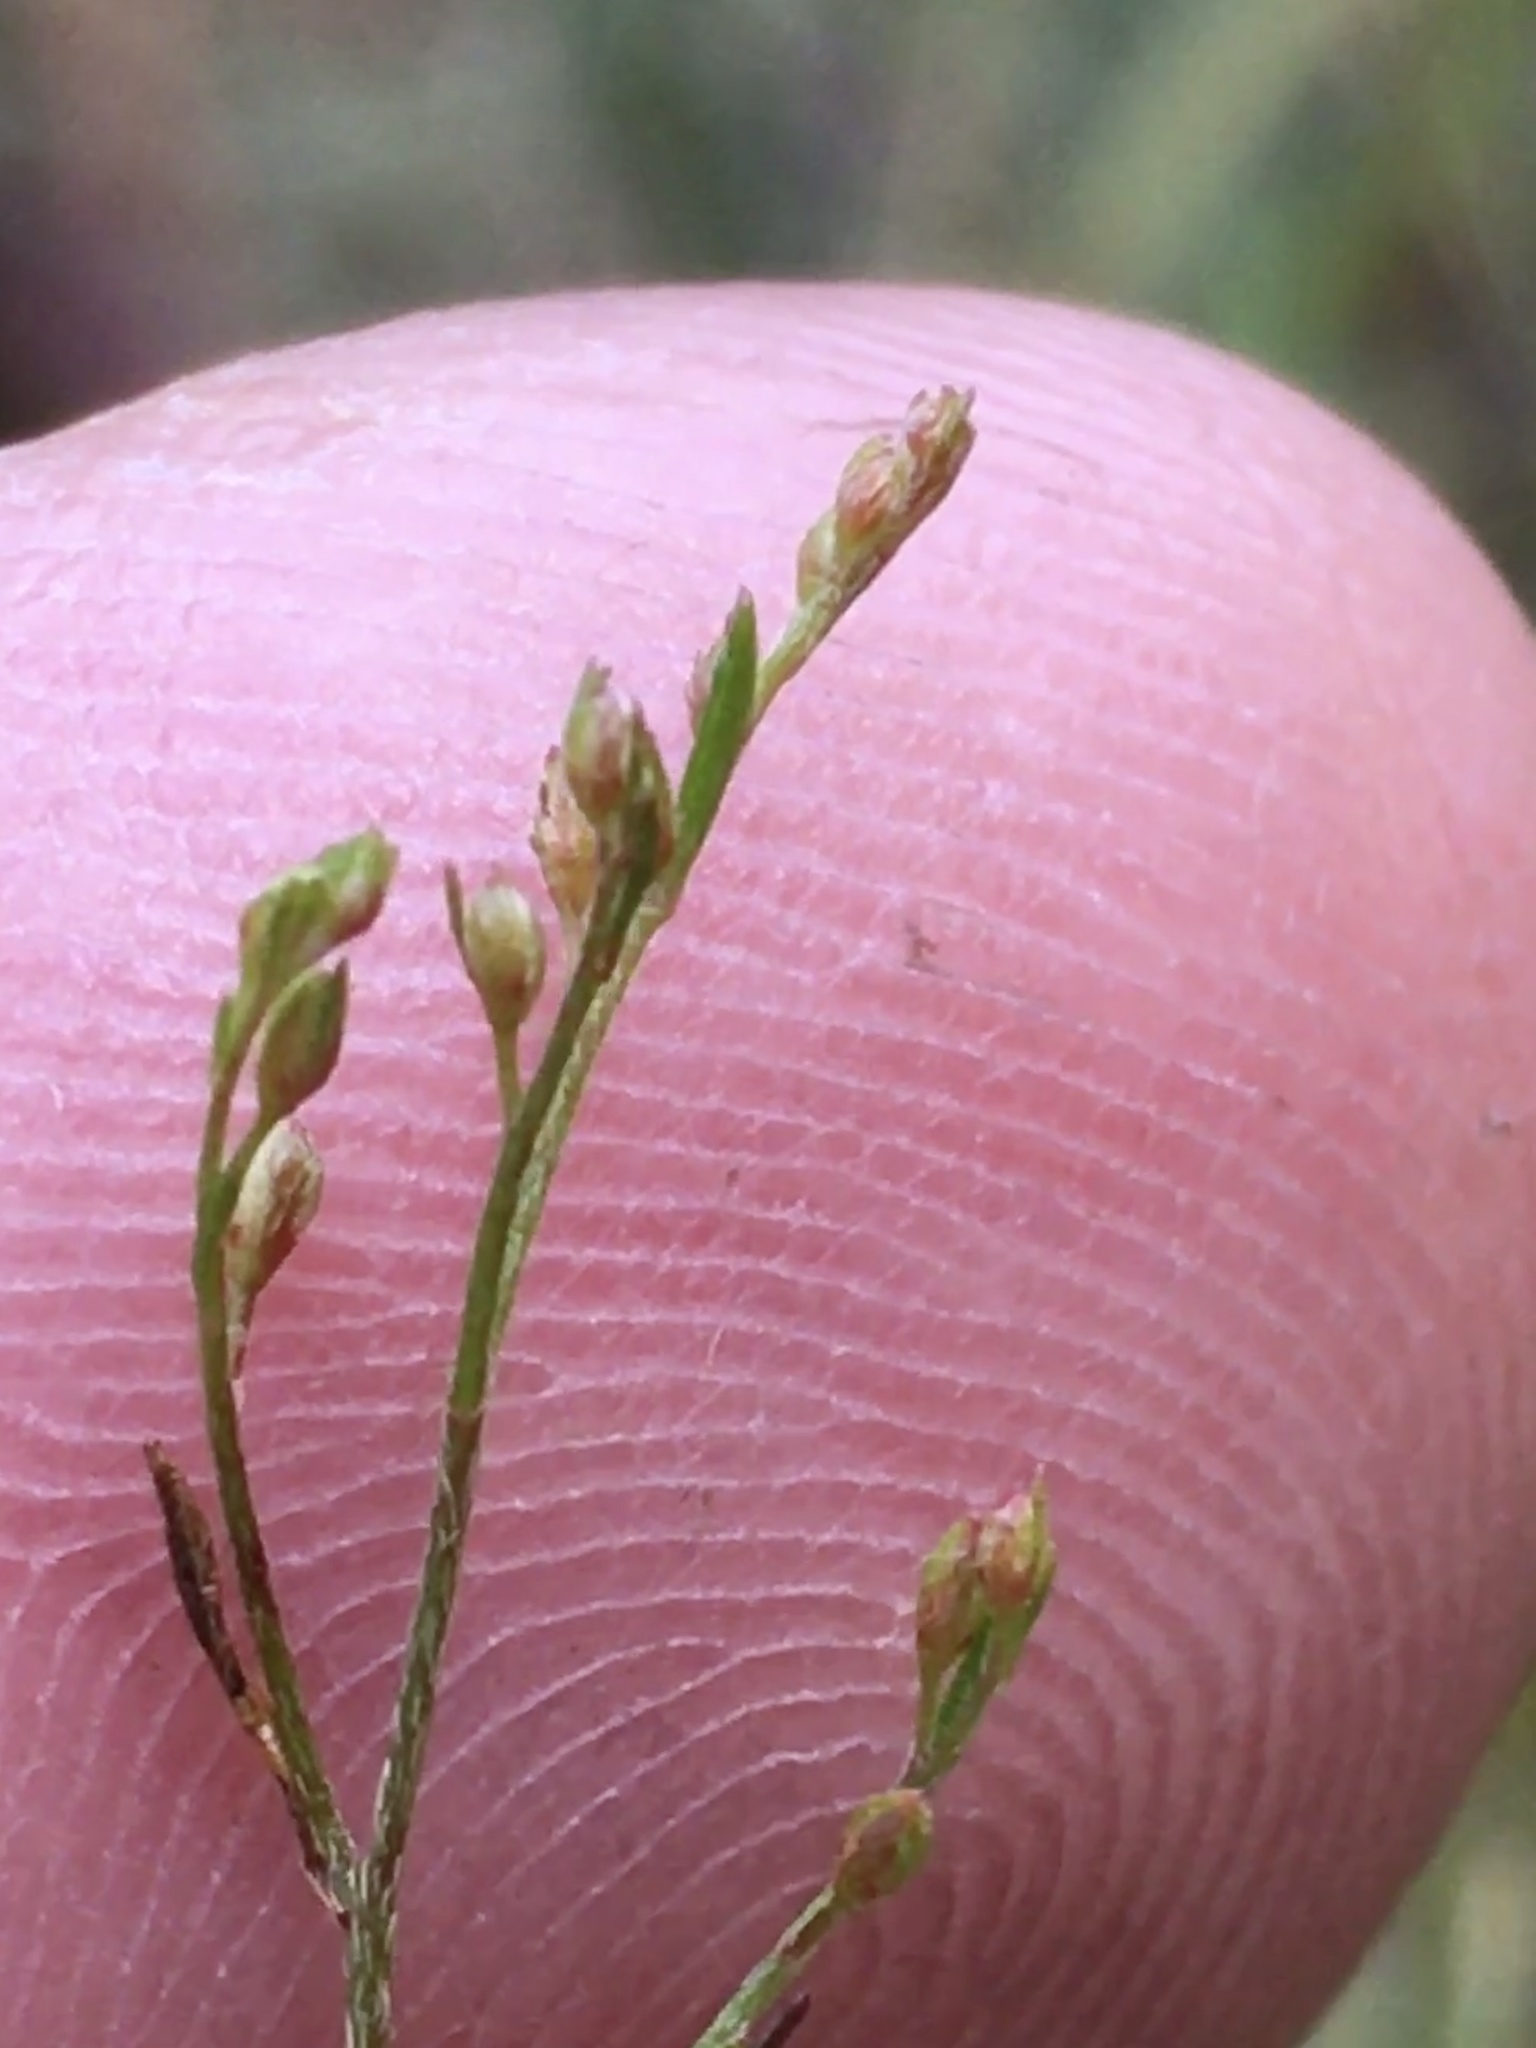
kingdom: Plantae
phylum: Tracheophyta
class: Magnoliopsida
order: Malvales
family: Cistaceae
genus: Lechea
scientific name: Lechea racemulosa
